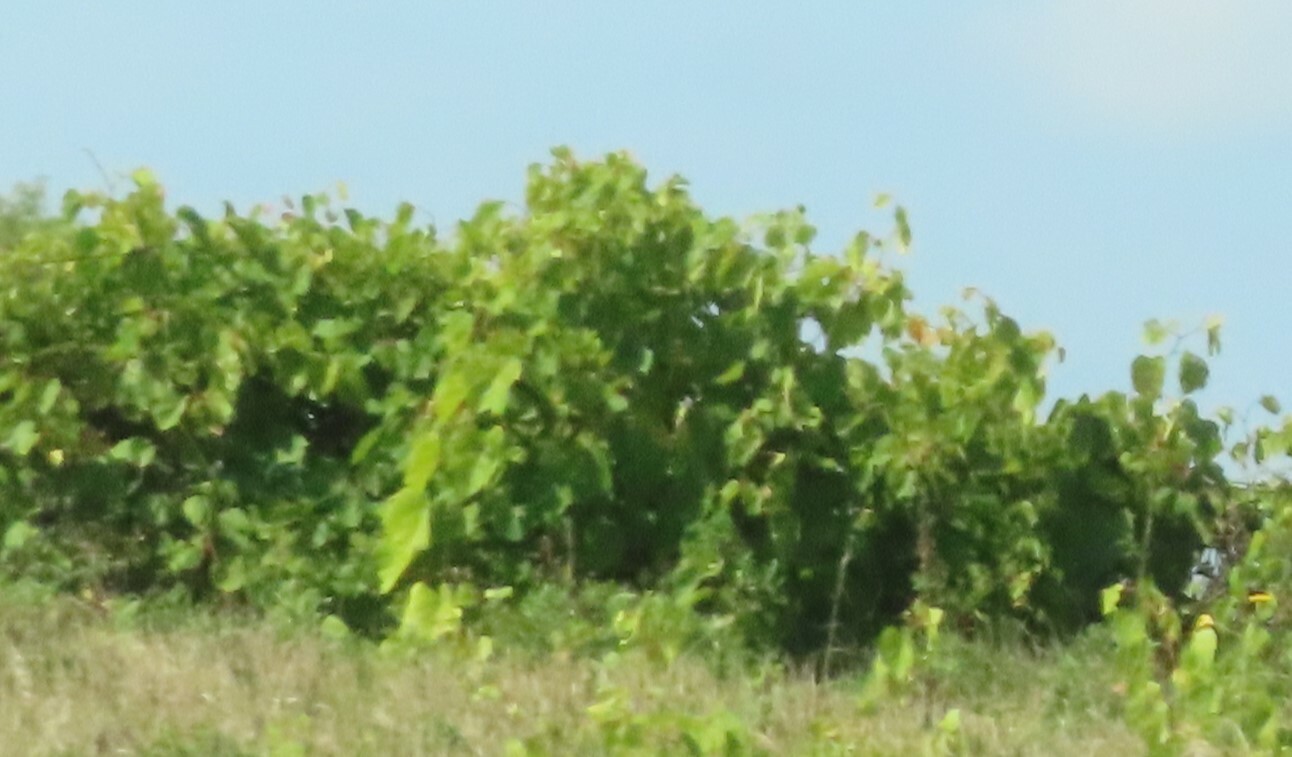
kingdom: Plantae
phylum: Tracheophyta
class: Magnoliopsida
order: Vitales
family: Vitaceae
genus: Vitis
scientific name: Vitis riparia
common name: Frost grape
